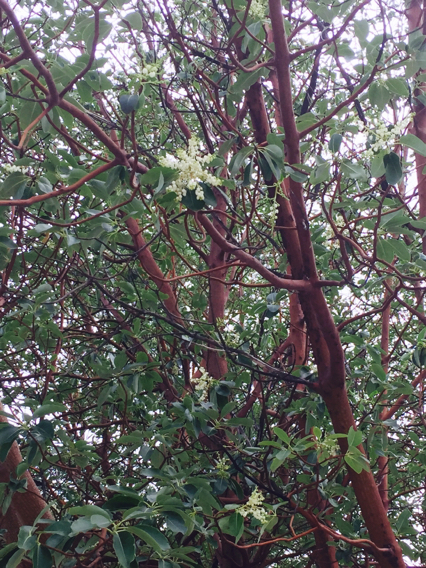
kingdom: Plantae
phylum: Tracheophyta
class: Magnoliopsida
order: Ericales
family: Ericaceae
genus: Arbutus
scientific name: Arbutus menziesii
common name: Pacific madrone
